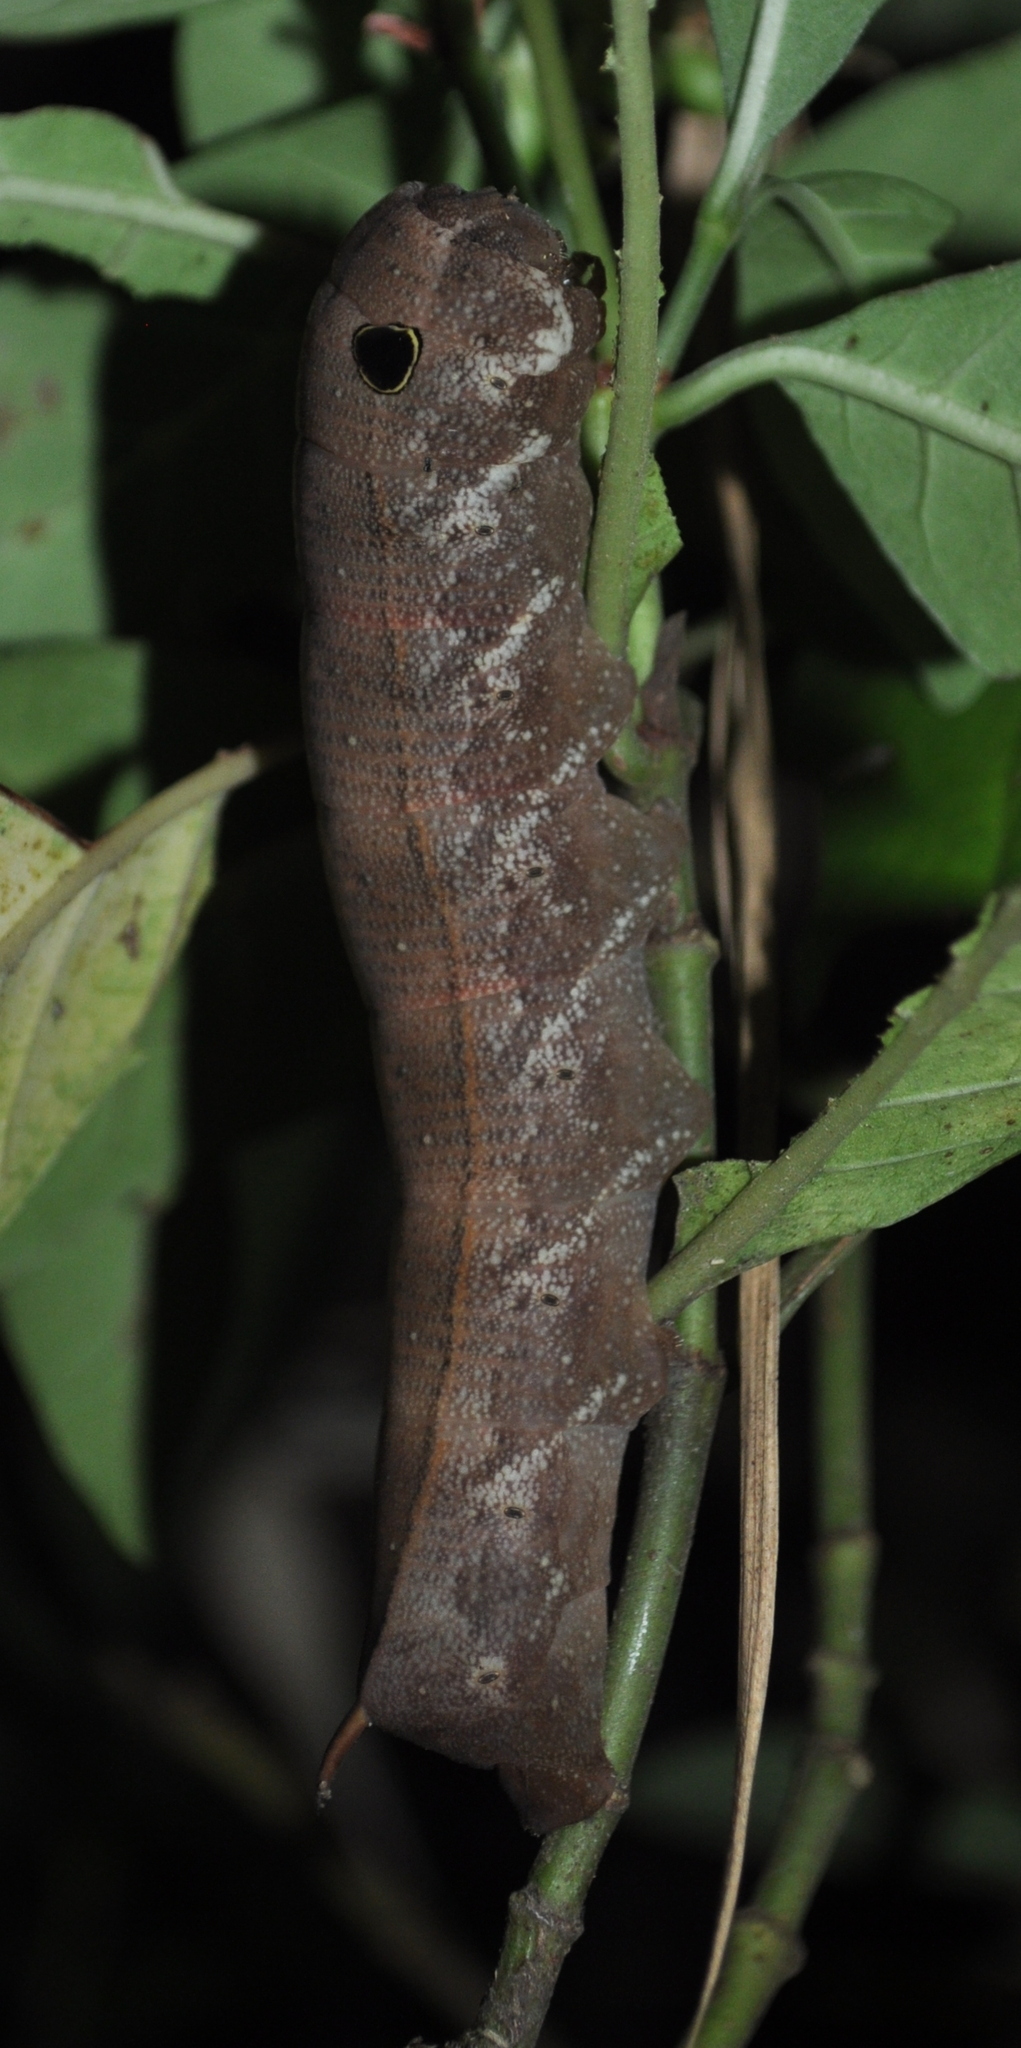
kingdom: Animalia
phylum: Arthropoda
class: Insecta
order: Lepidoptera
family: Sphingidae
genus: Xylophanes
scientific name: Xylophanes anubus
